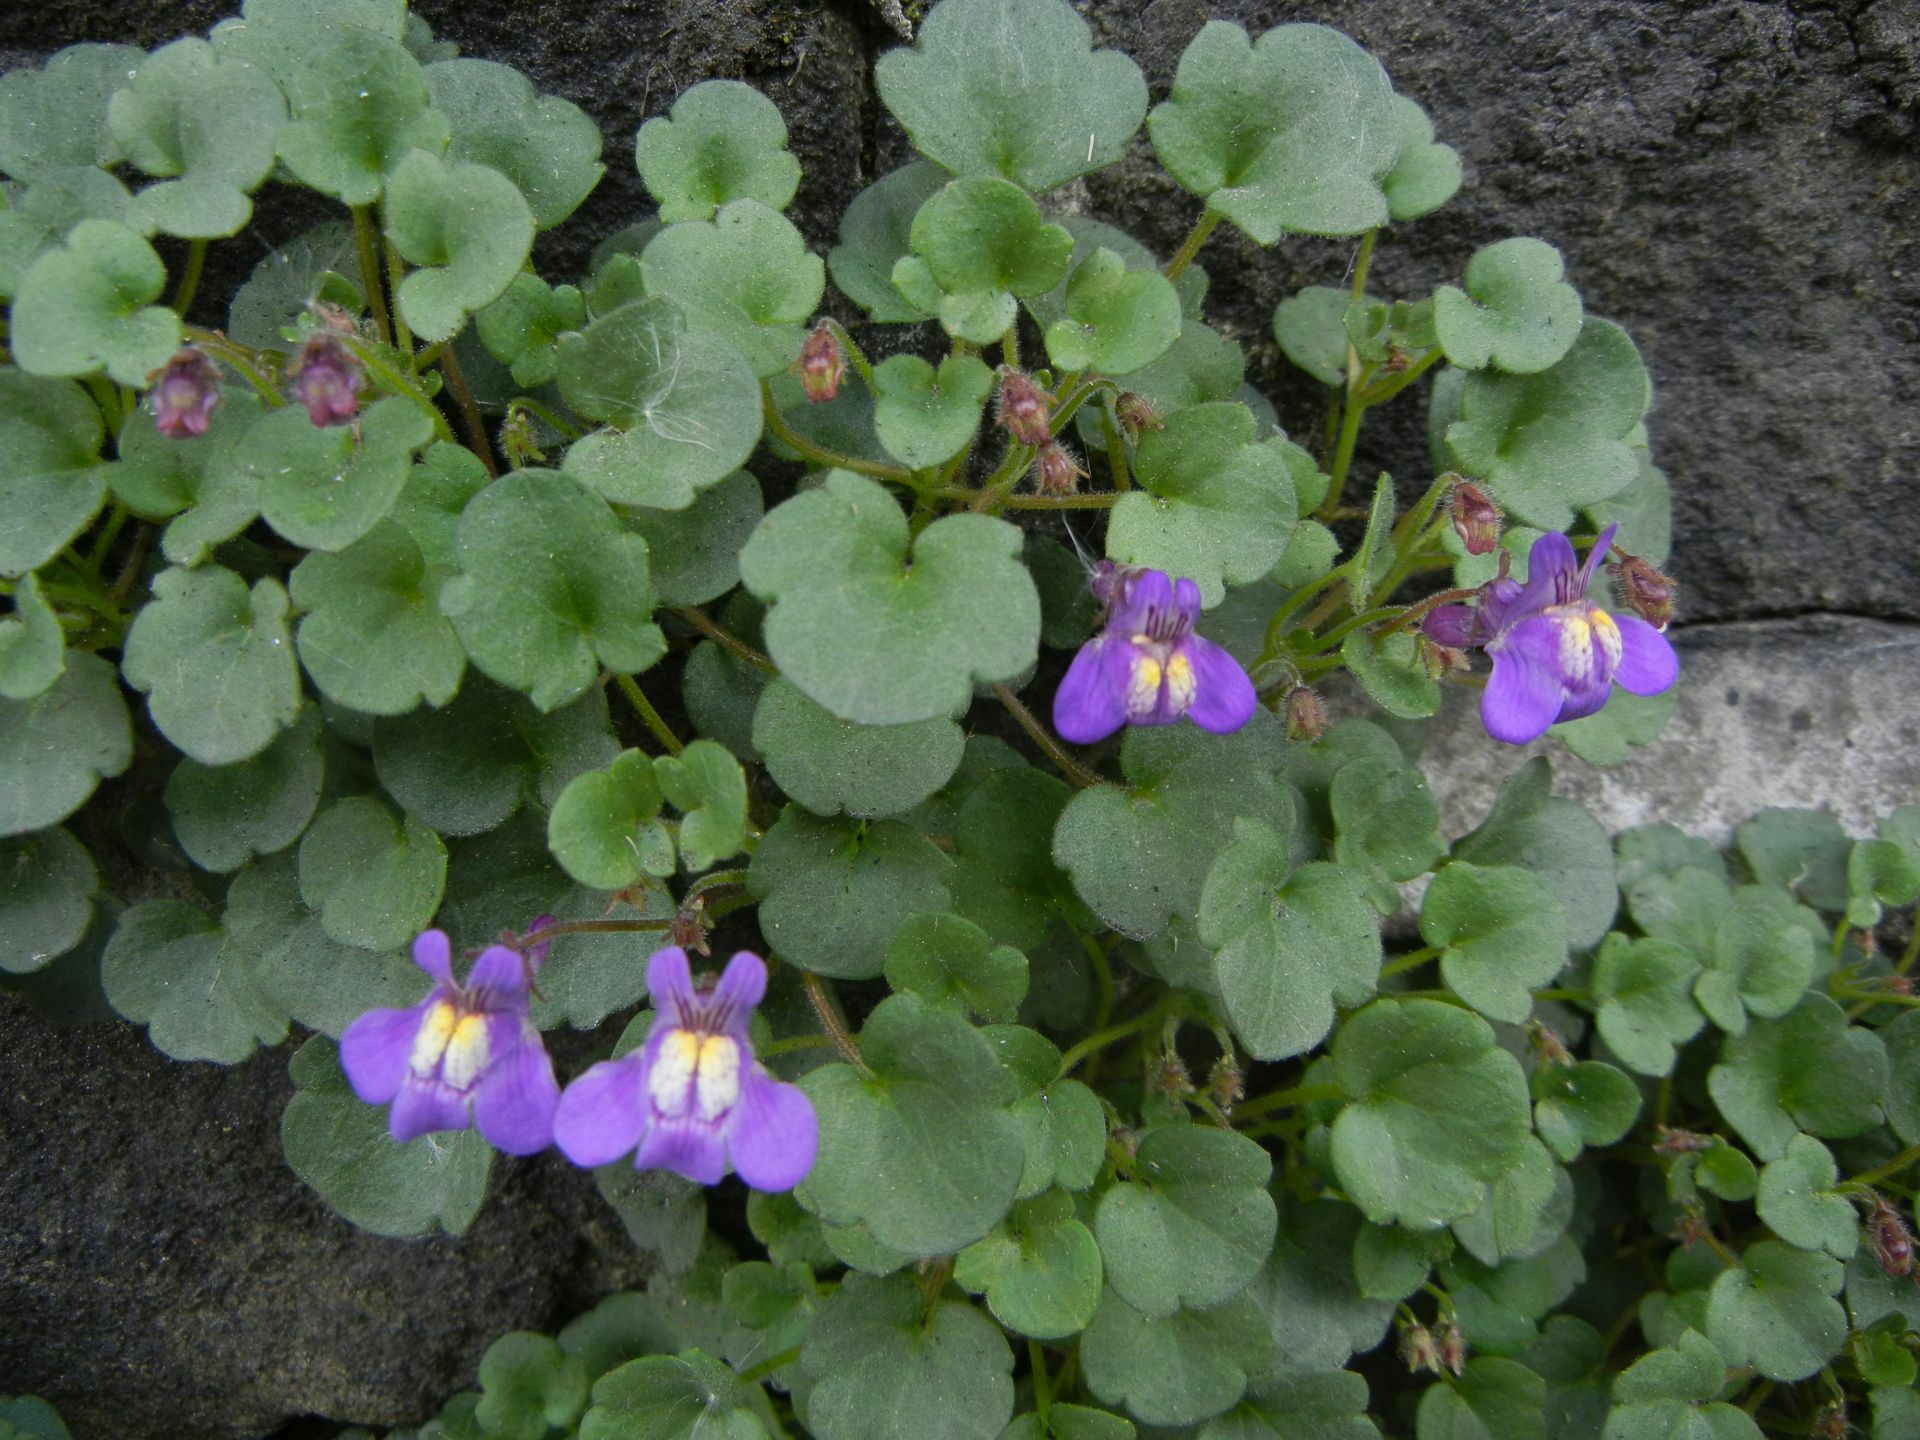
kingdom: Plantae
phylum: Tracheophyta
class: Magnoliopsida
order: Lamiales
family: Plantaginaceae
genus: Cymbalaria
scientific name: Cymbalaria pallida
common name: Italian toadflax
